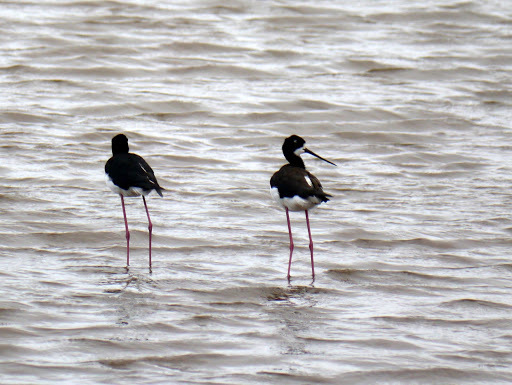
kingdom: Animalia
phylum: Chordata
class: Aves
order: Charadriiformes
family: Recurvirostridae
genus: Himantopus
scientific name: Himantopus mexicanus
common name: Black-necked stilt
